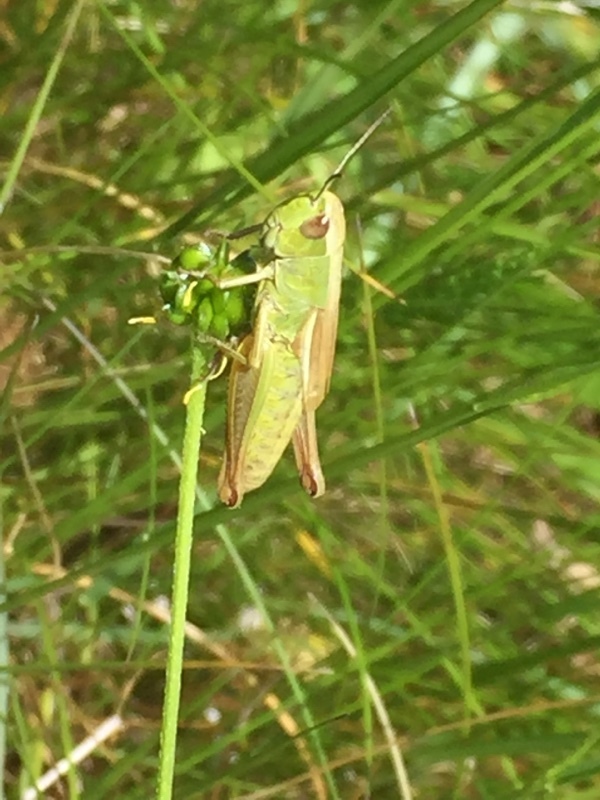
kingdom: Animalia
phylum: Arthropoda
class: Insecta
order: Orthoptera
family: Acrididae
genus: Pseudochorthippus
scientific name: Pseudochorthippus parallelus
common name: Meadow grasshopper
